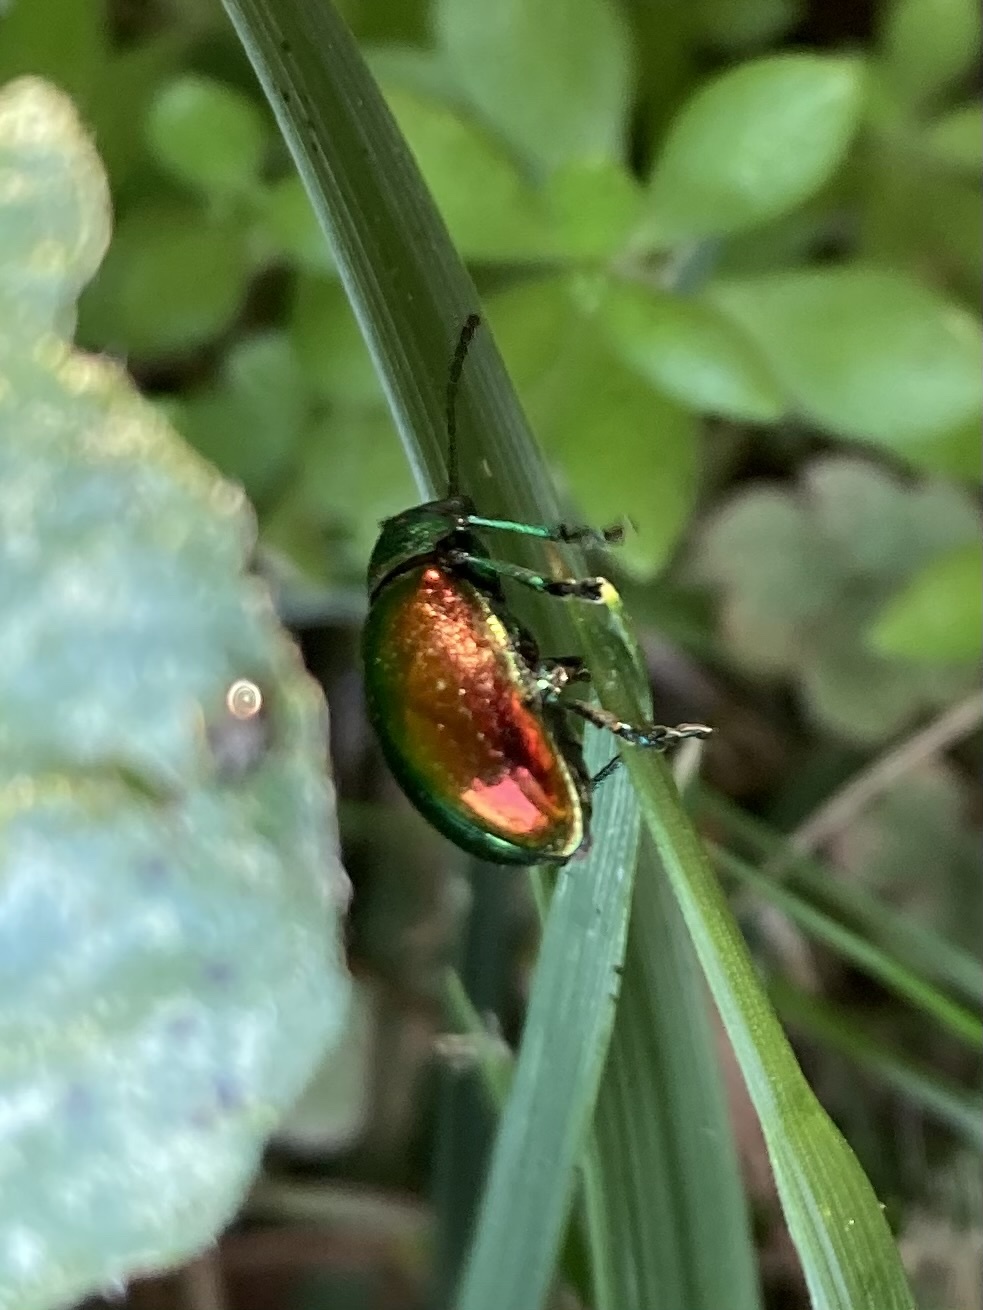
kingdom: Animalia
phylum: Arthropoda
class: Insecta
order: Coleoptera
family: Chrysomelidae
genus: Chrysochus
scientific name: Chrysochus auratus
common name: Dogbane leaf beetle
